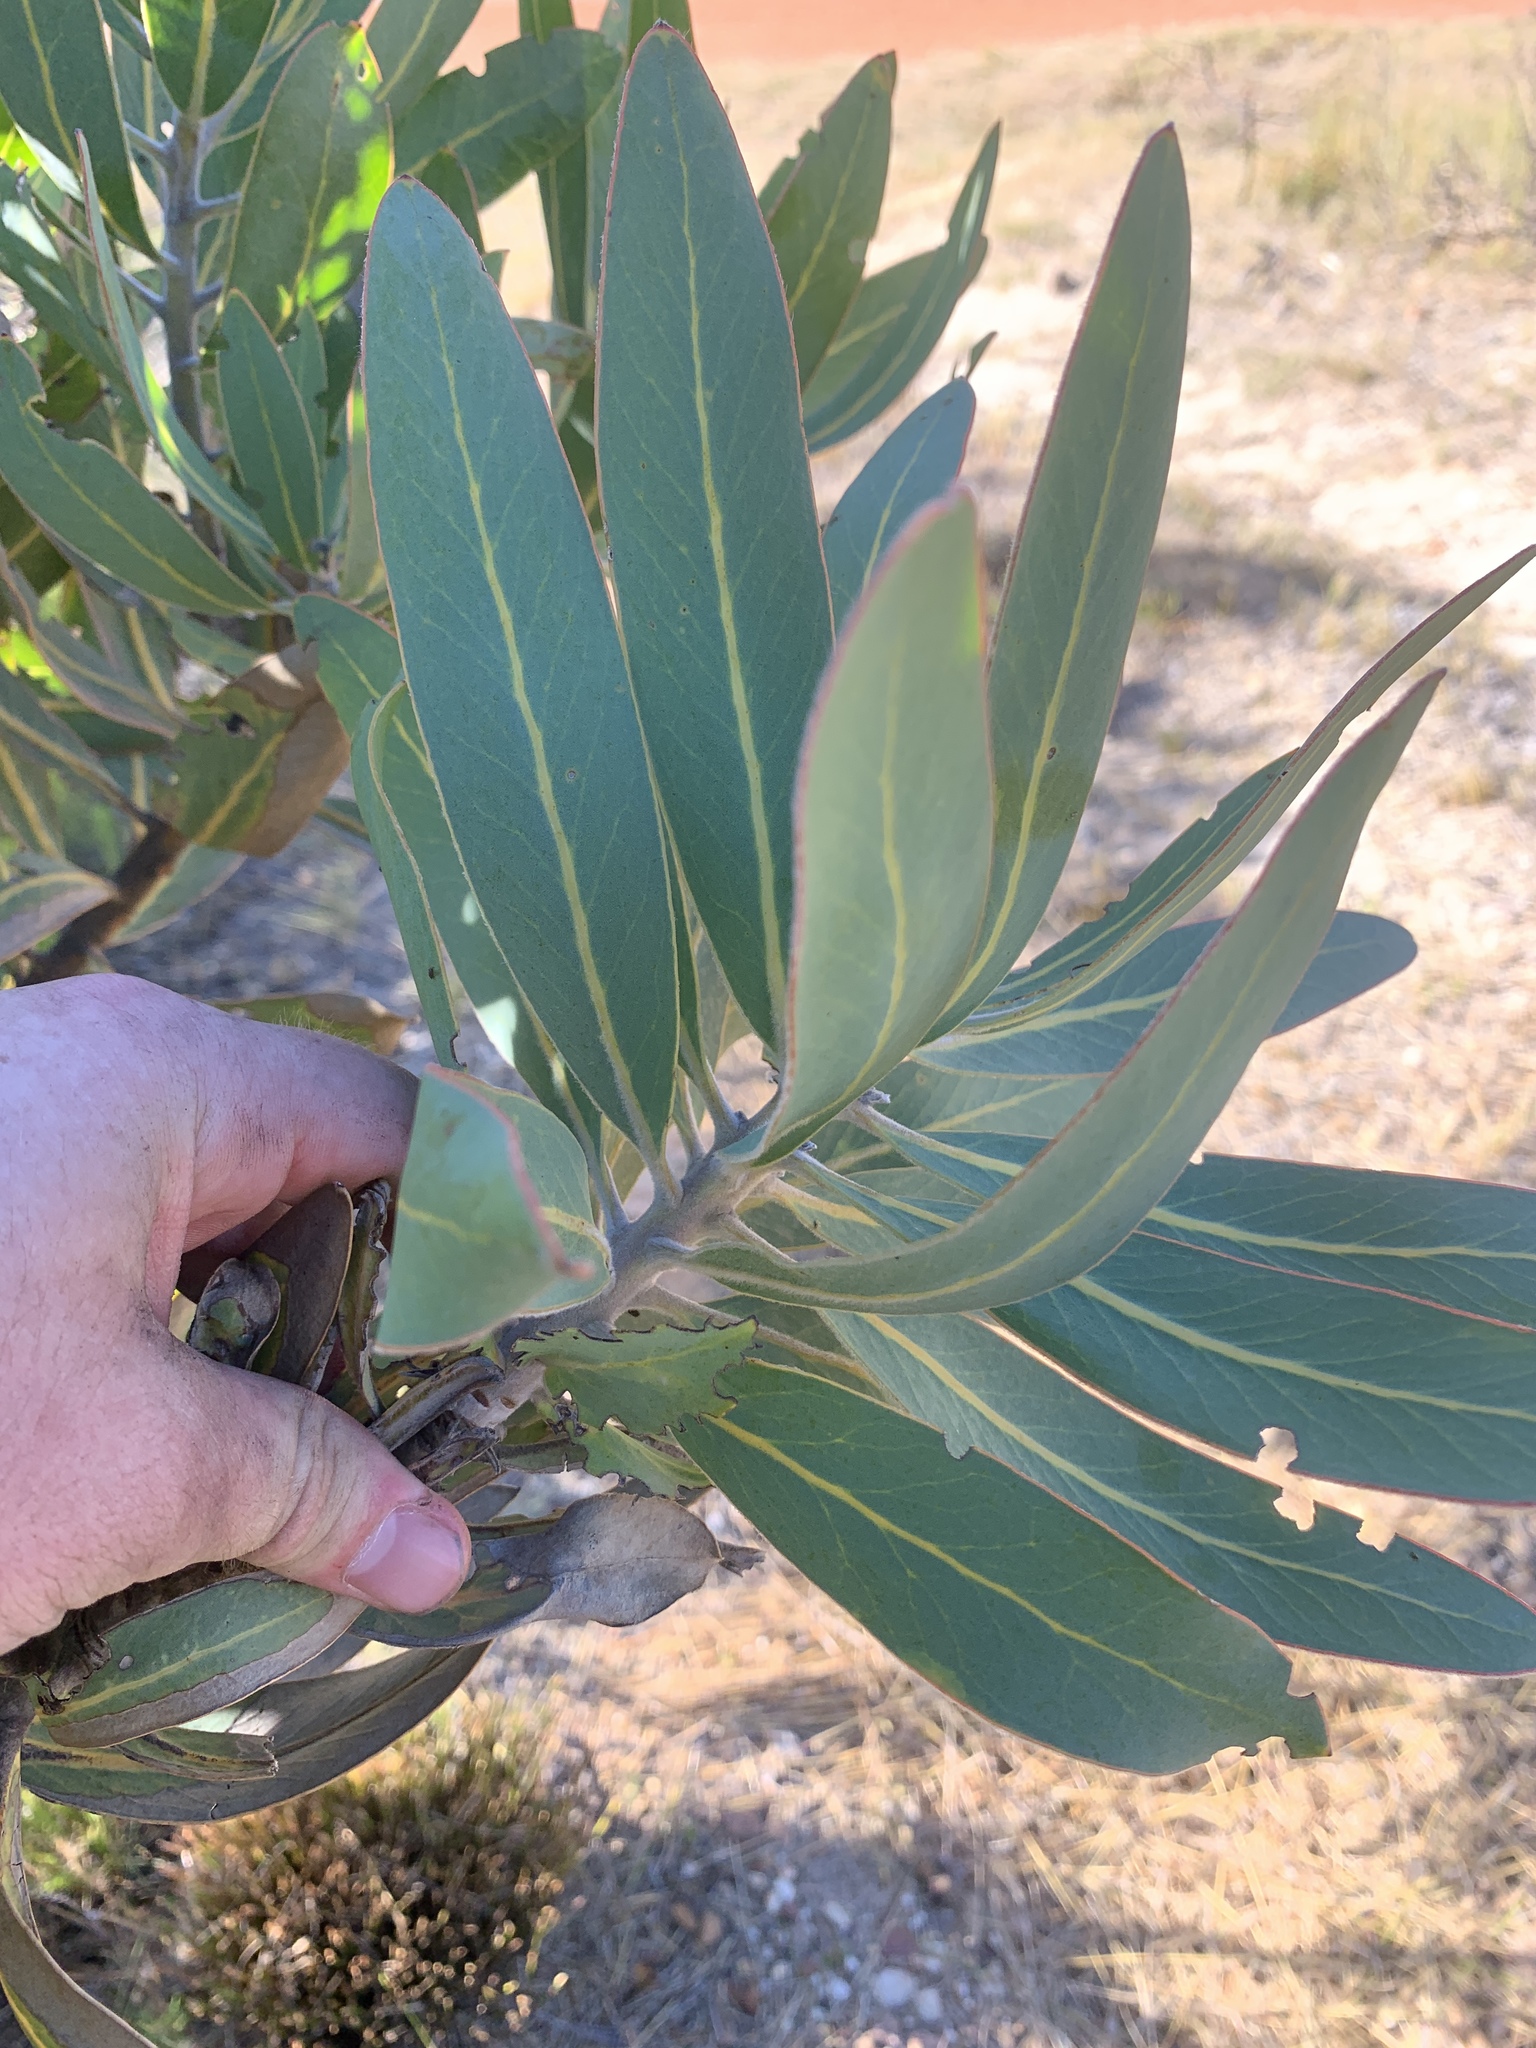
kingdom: Plantae
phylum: Tracheophyta
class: Magnoliopsida
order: Proteales
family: Proteaceae
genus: Protea
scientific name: Protea laurifolia
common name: Grey-leaf sugarbsh
